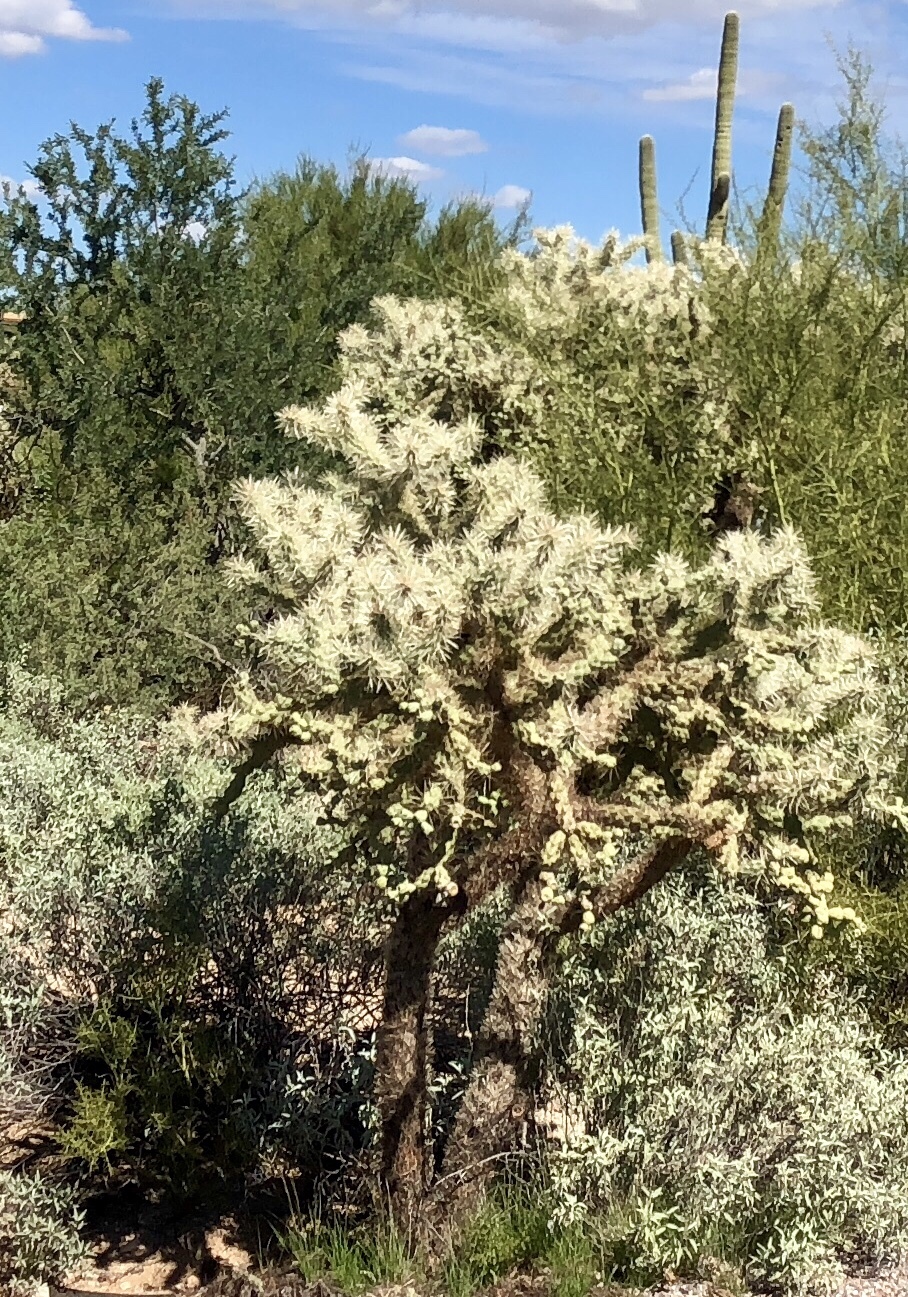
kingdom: Plantae
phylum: Tracheophyta
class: Magnoliopsida
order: Caryophyllales
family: Cactaceae
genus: Cylindropuntia
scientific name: Cylindropuntia fulgida
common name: Jumping cholla
